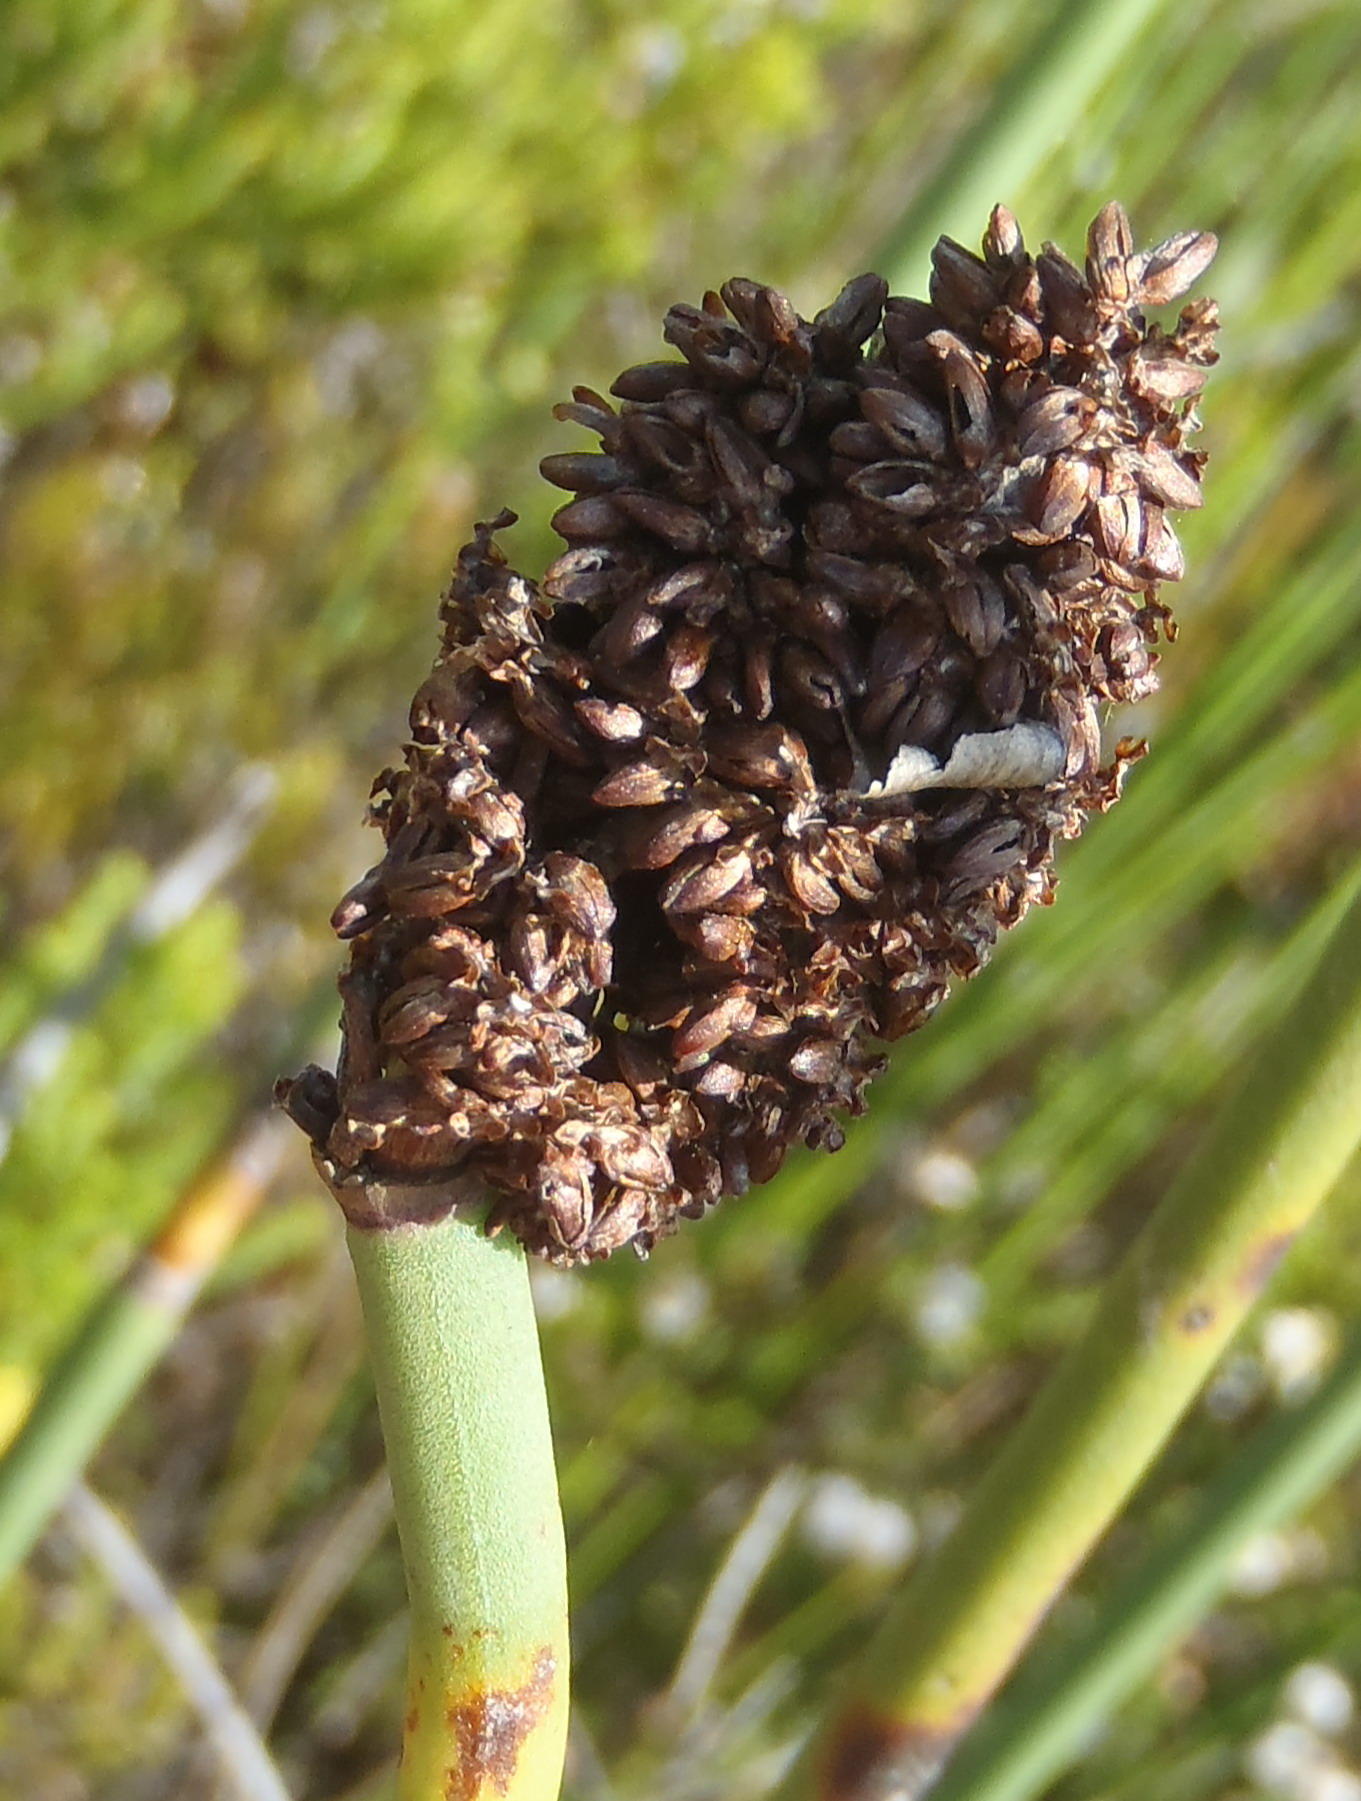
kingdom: Plantae
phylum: Tracheophyta
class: Liliopsida
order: Poales
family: Restionaceae
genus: Elegia
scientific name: Elegia thyrsoidea
